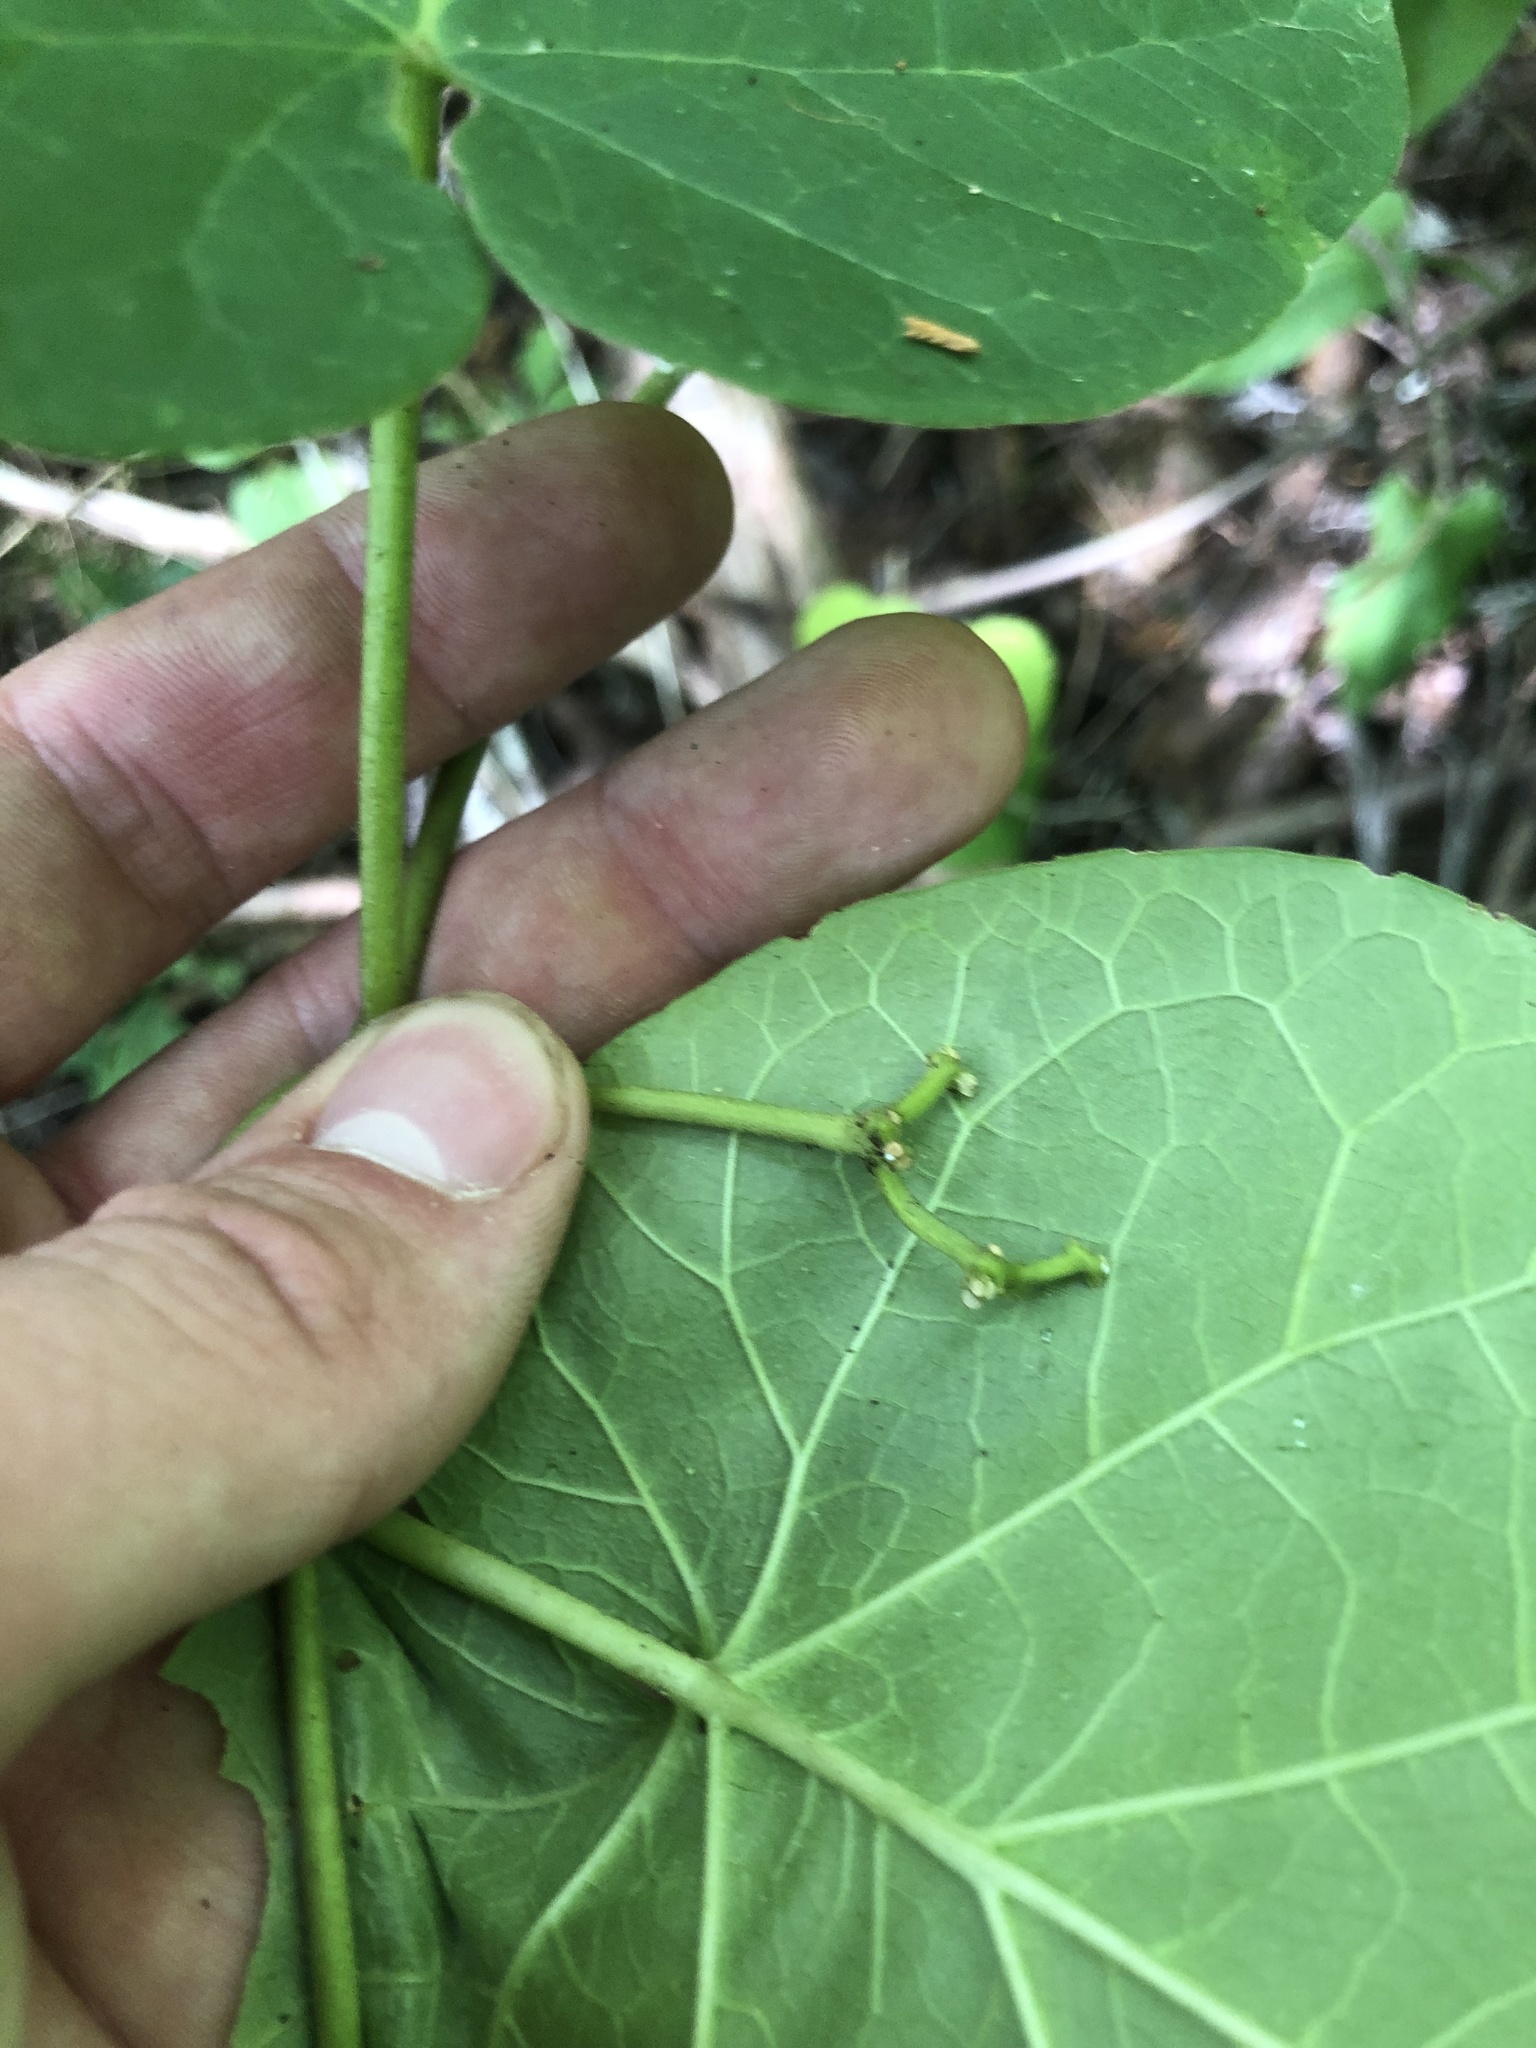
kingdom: Plantae
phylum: Tracheophyta
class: Magnoliopsida
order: Gentianales
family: Apocynaceae
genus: Matelea
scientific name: Matelea carolinensis
